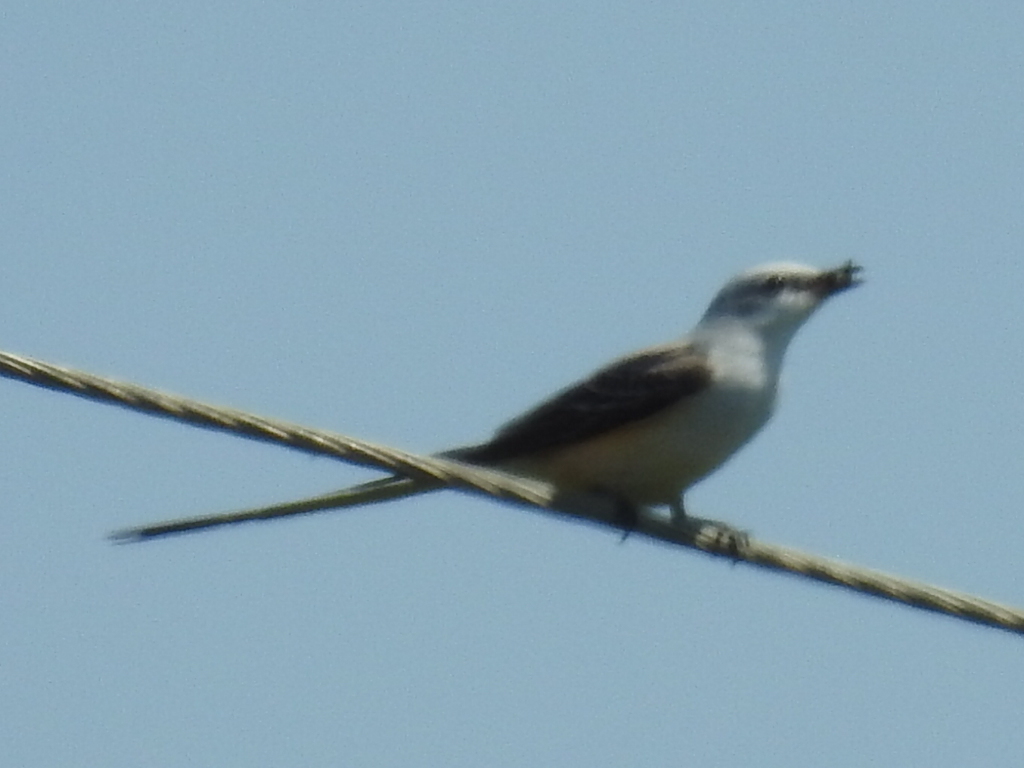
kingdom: Animalia
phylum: Chordata
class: Aves
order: Passeriformes
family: Tyrannidae
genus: Tyrannus
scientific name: Tyrannus forficatus
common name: Scissor-tailed flycatcher
